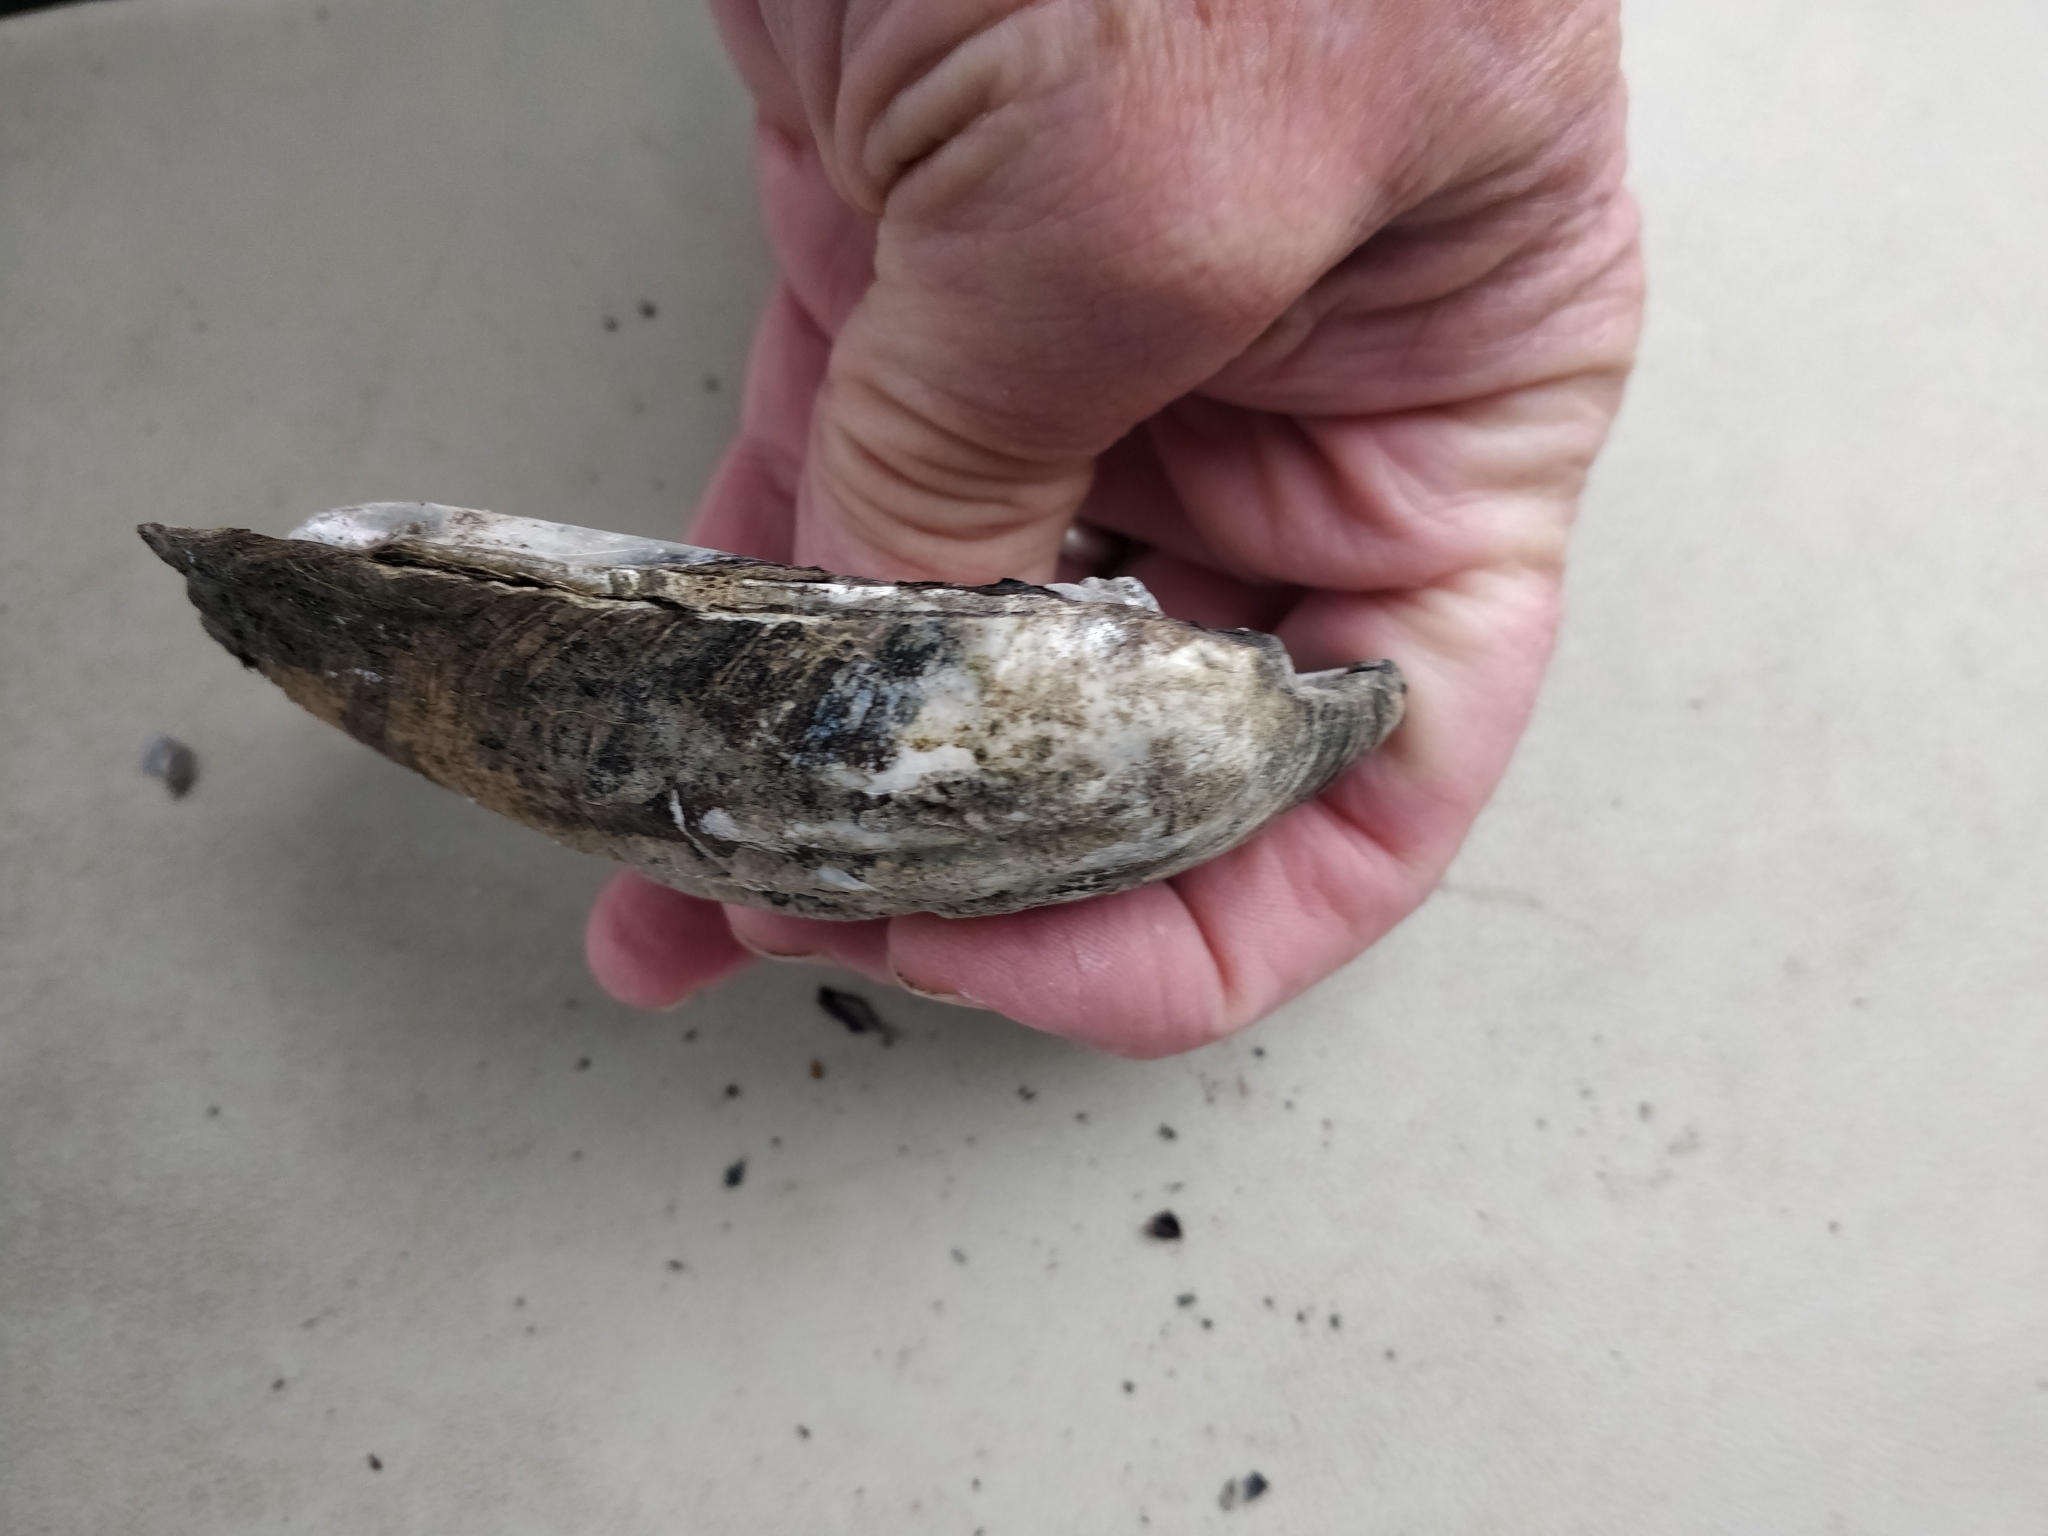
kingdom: Animalia
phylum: Mollusca
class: Bivalvia
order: Unionida
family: Unionidae
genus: Amblema
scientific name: Amblema plicata
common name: Threeridge
